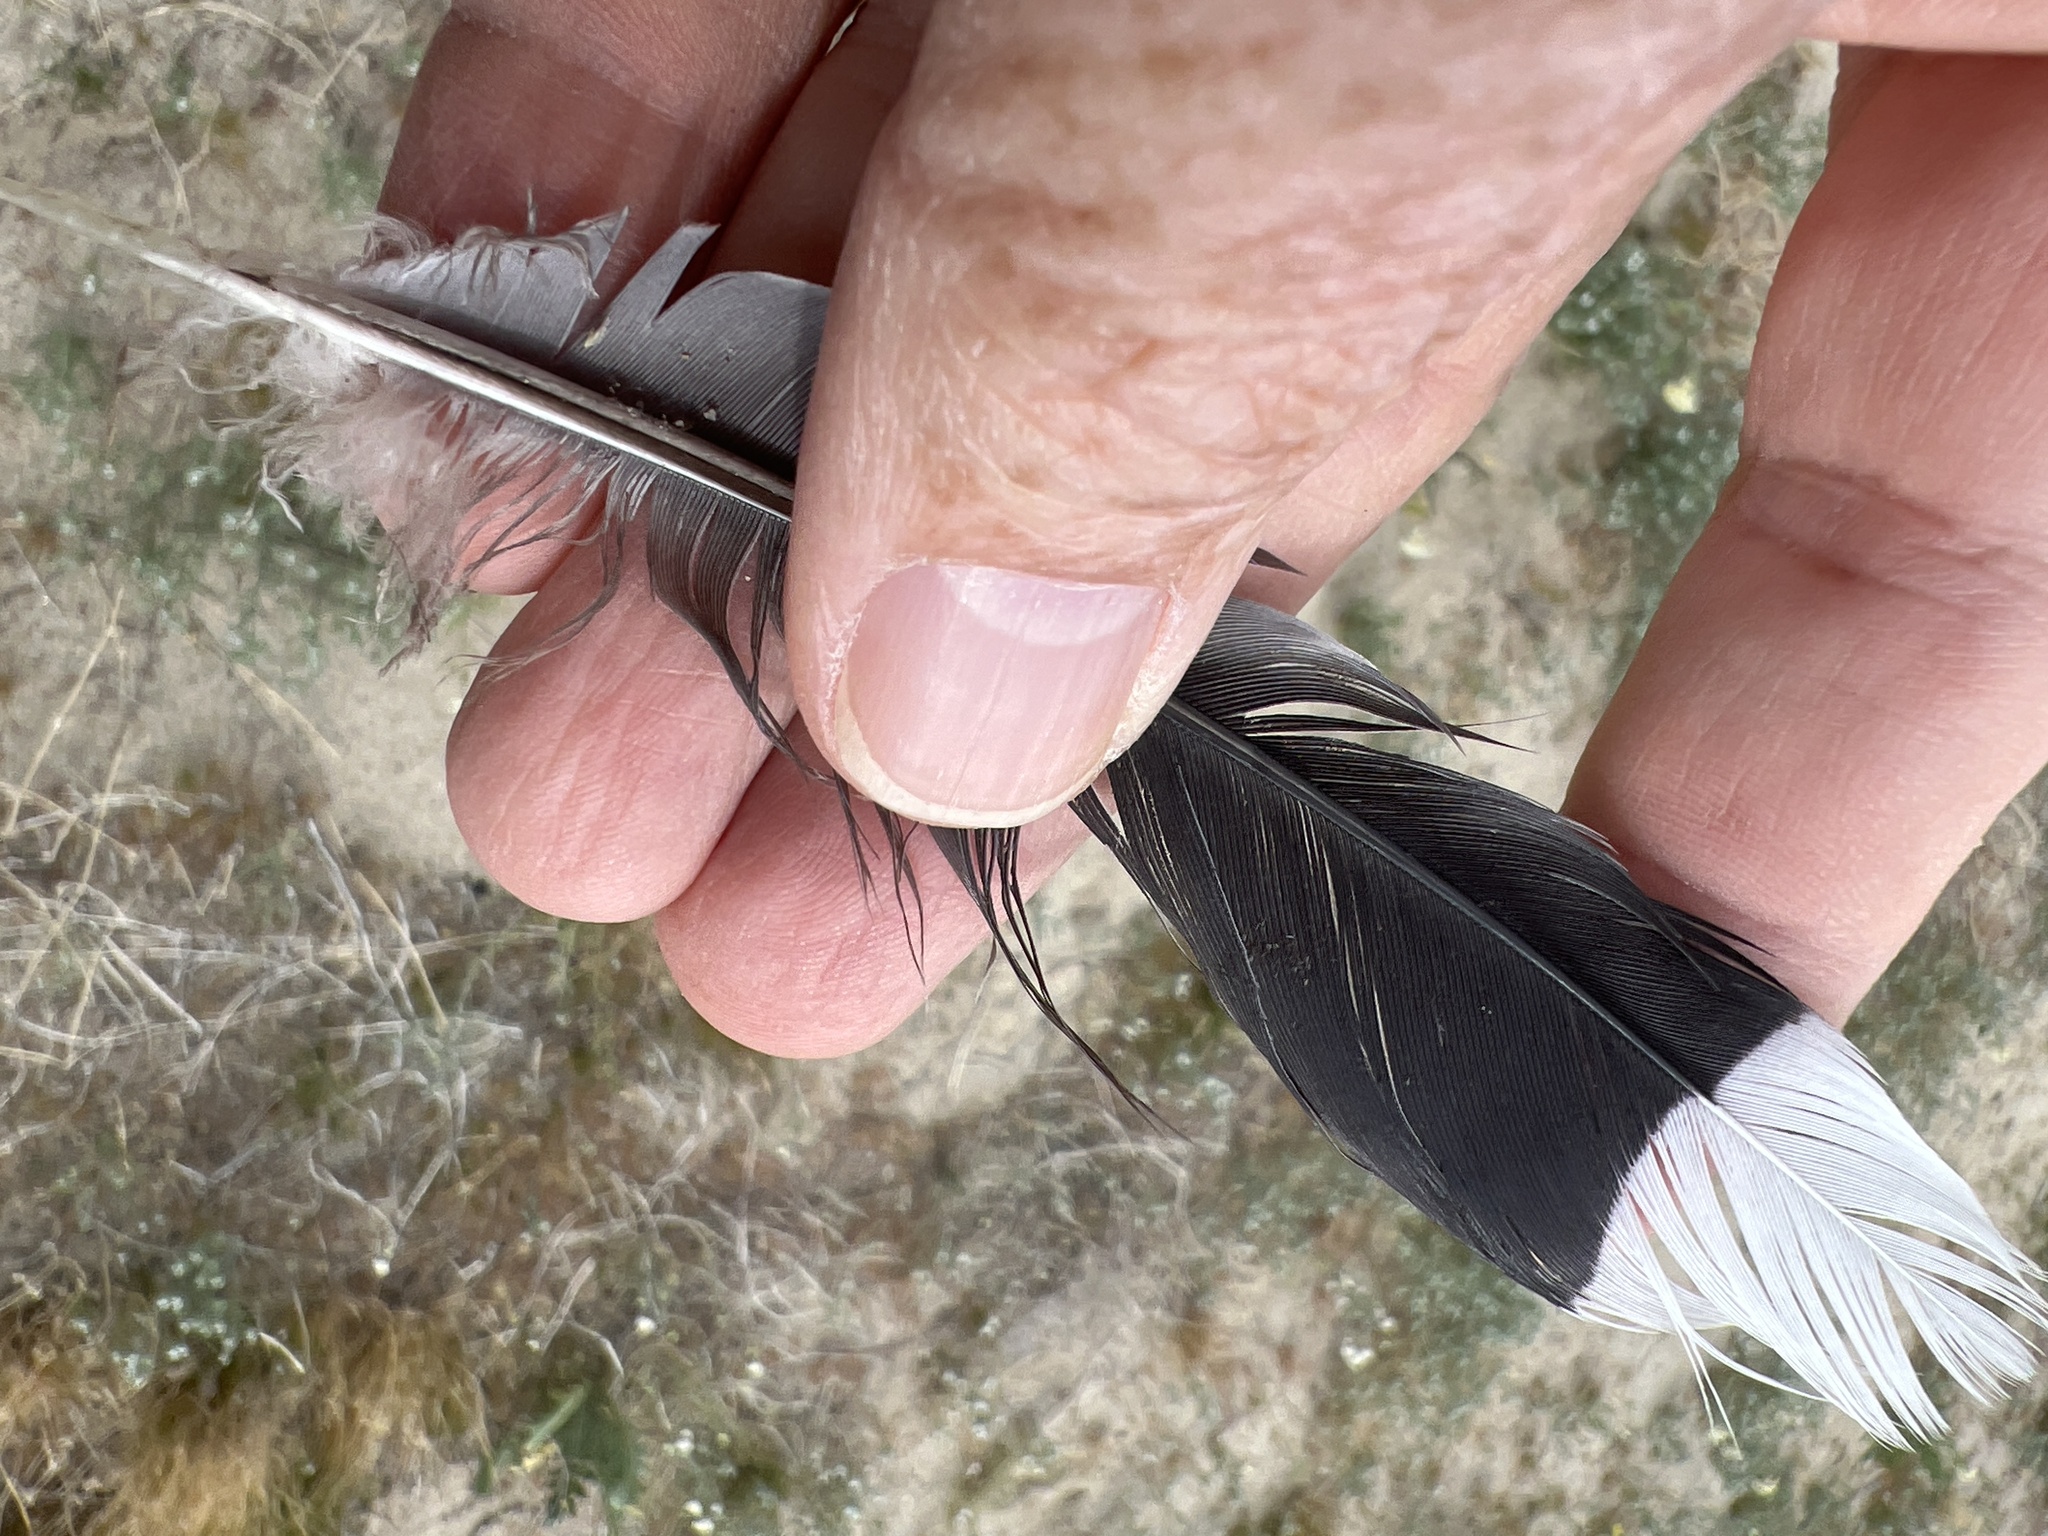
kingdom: Animalia
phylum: Chordata
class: Aves
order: Columbiformes
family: Columbidae
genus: Zenaida
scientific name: Zenaida asiatica
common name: White-winged dove
